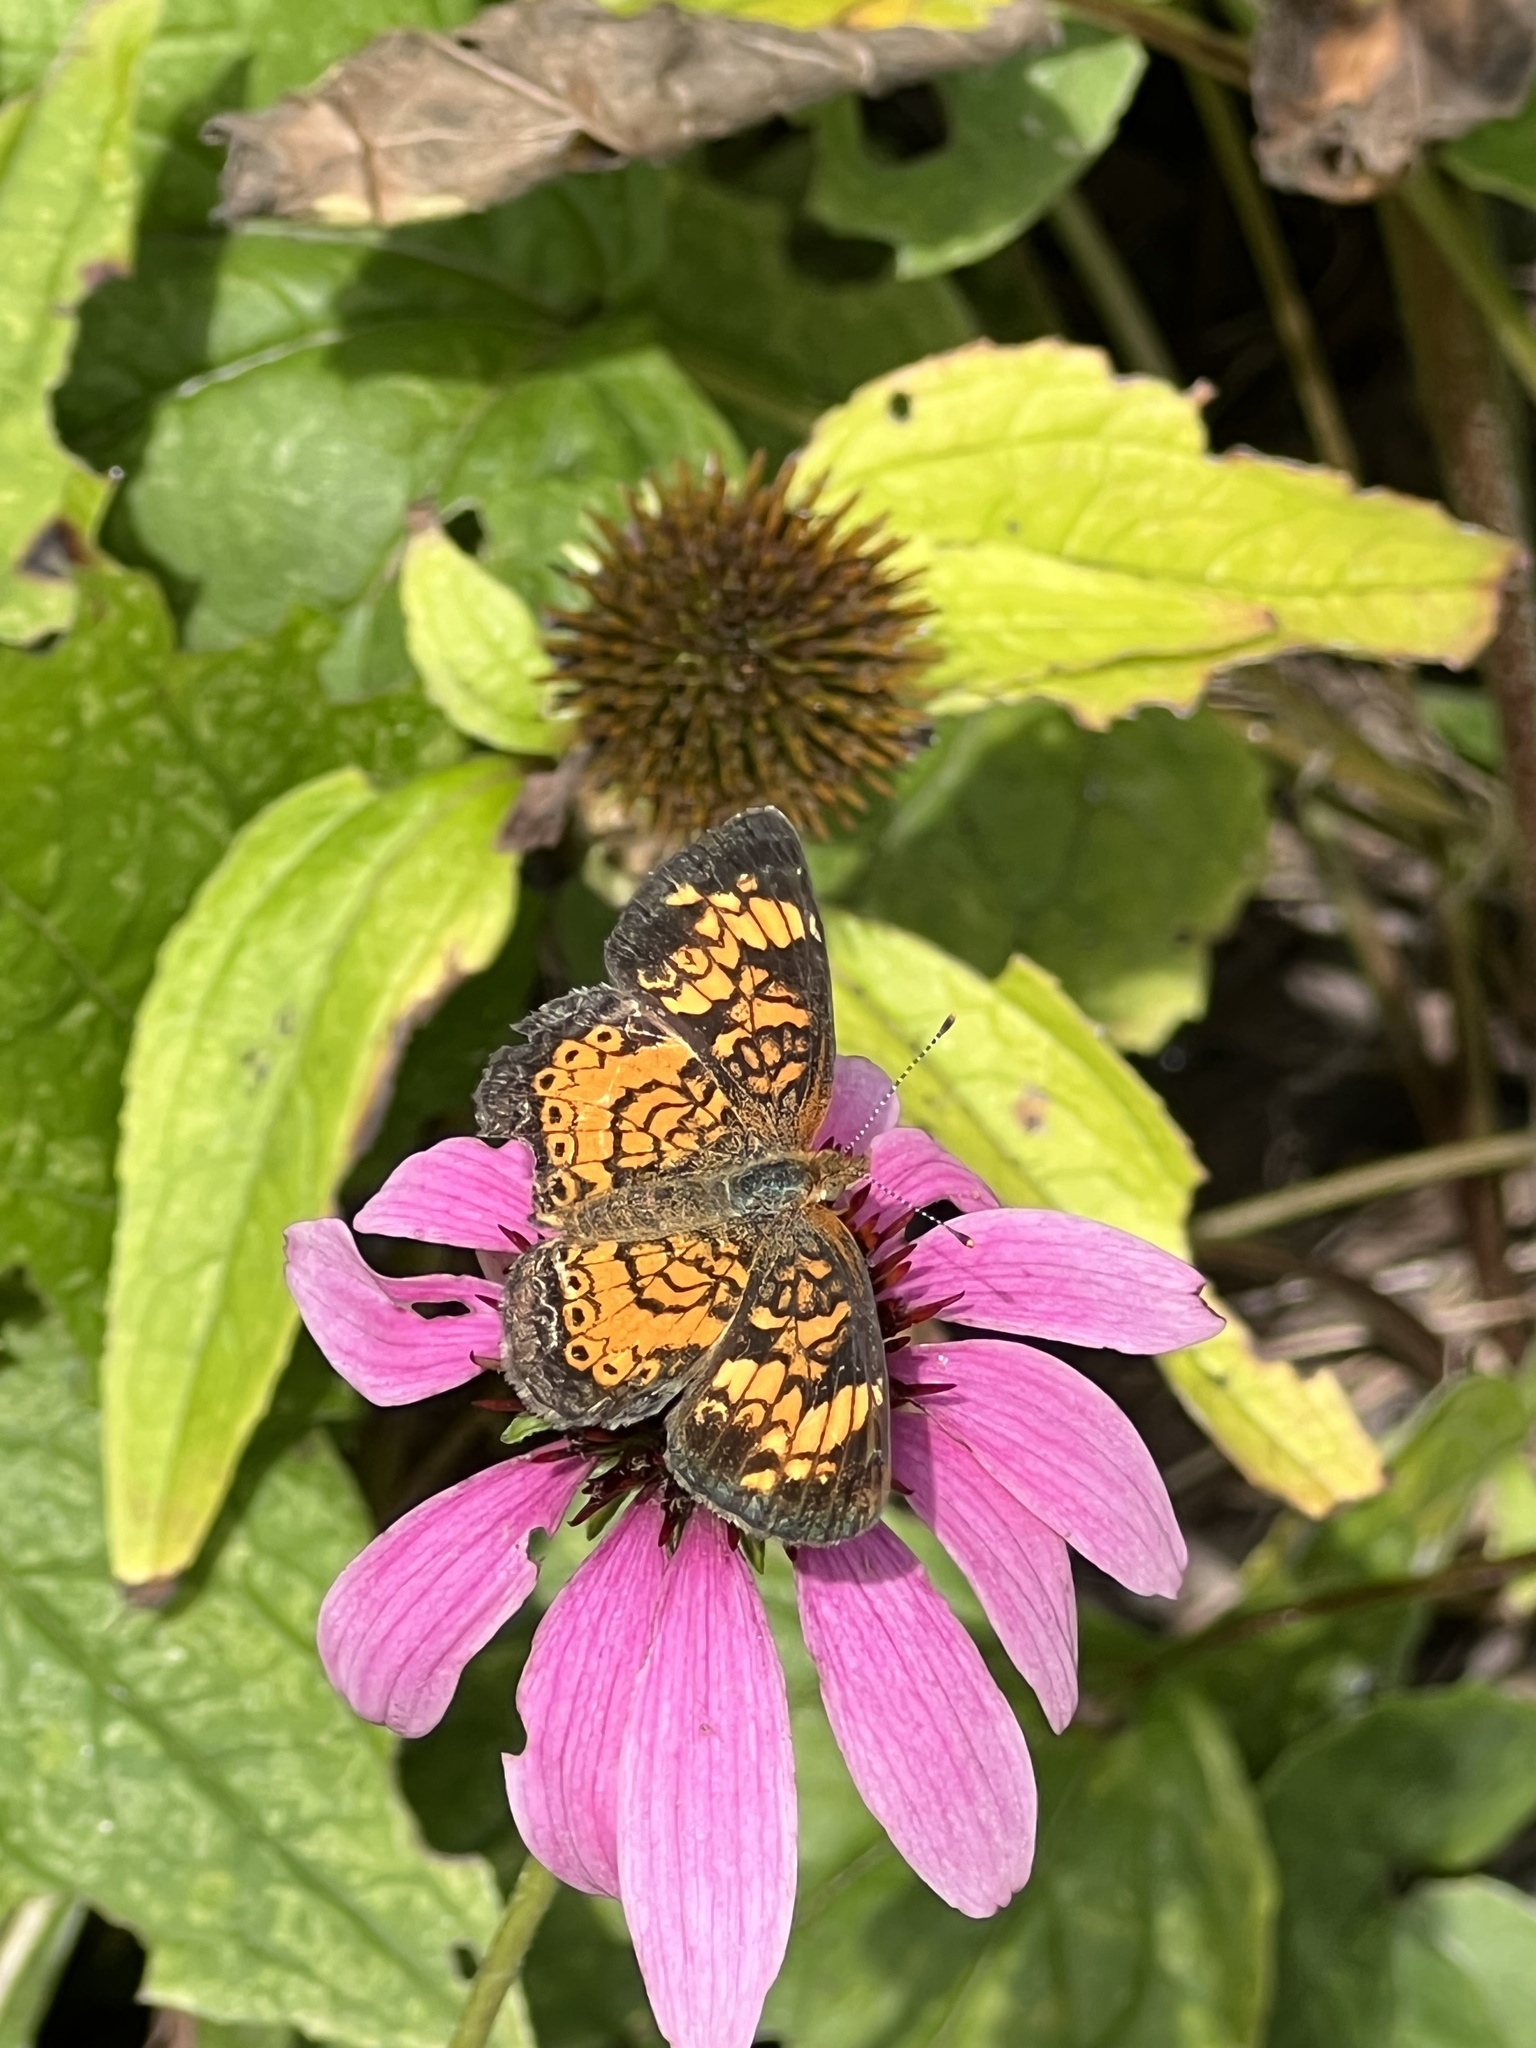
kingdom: Animalia
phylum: Arthropoda
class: Insecta
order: Lepidoptera
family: Nymphalidae
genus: Phyciodes
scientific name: Phyciodes tharos
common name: Pearl crescent
